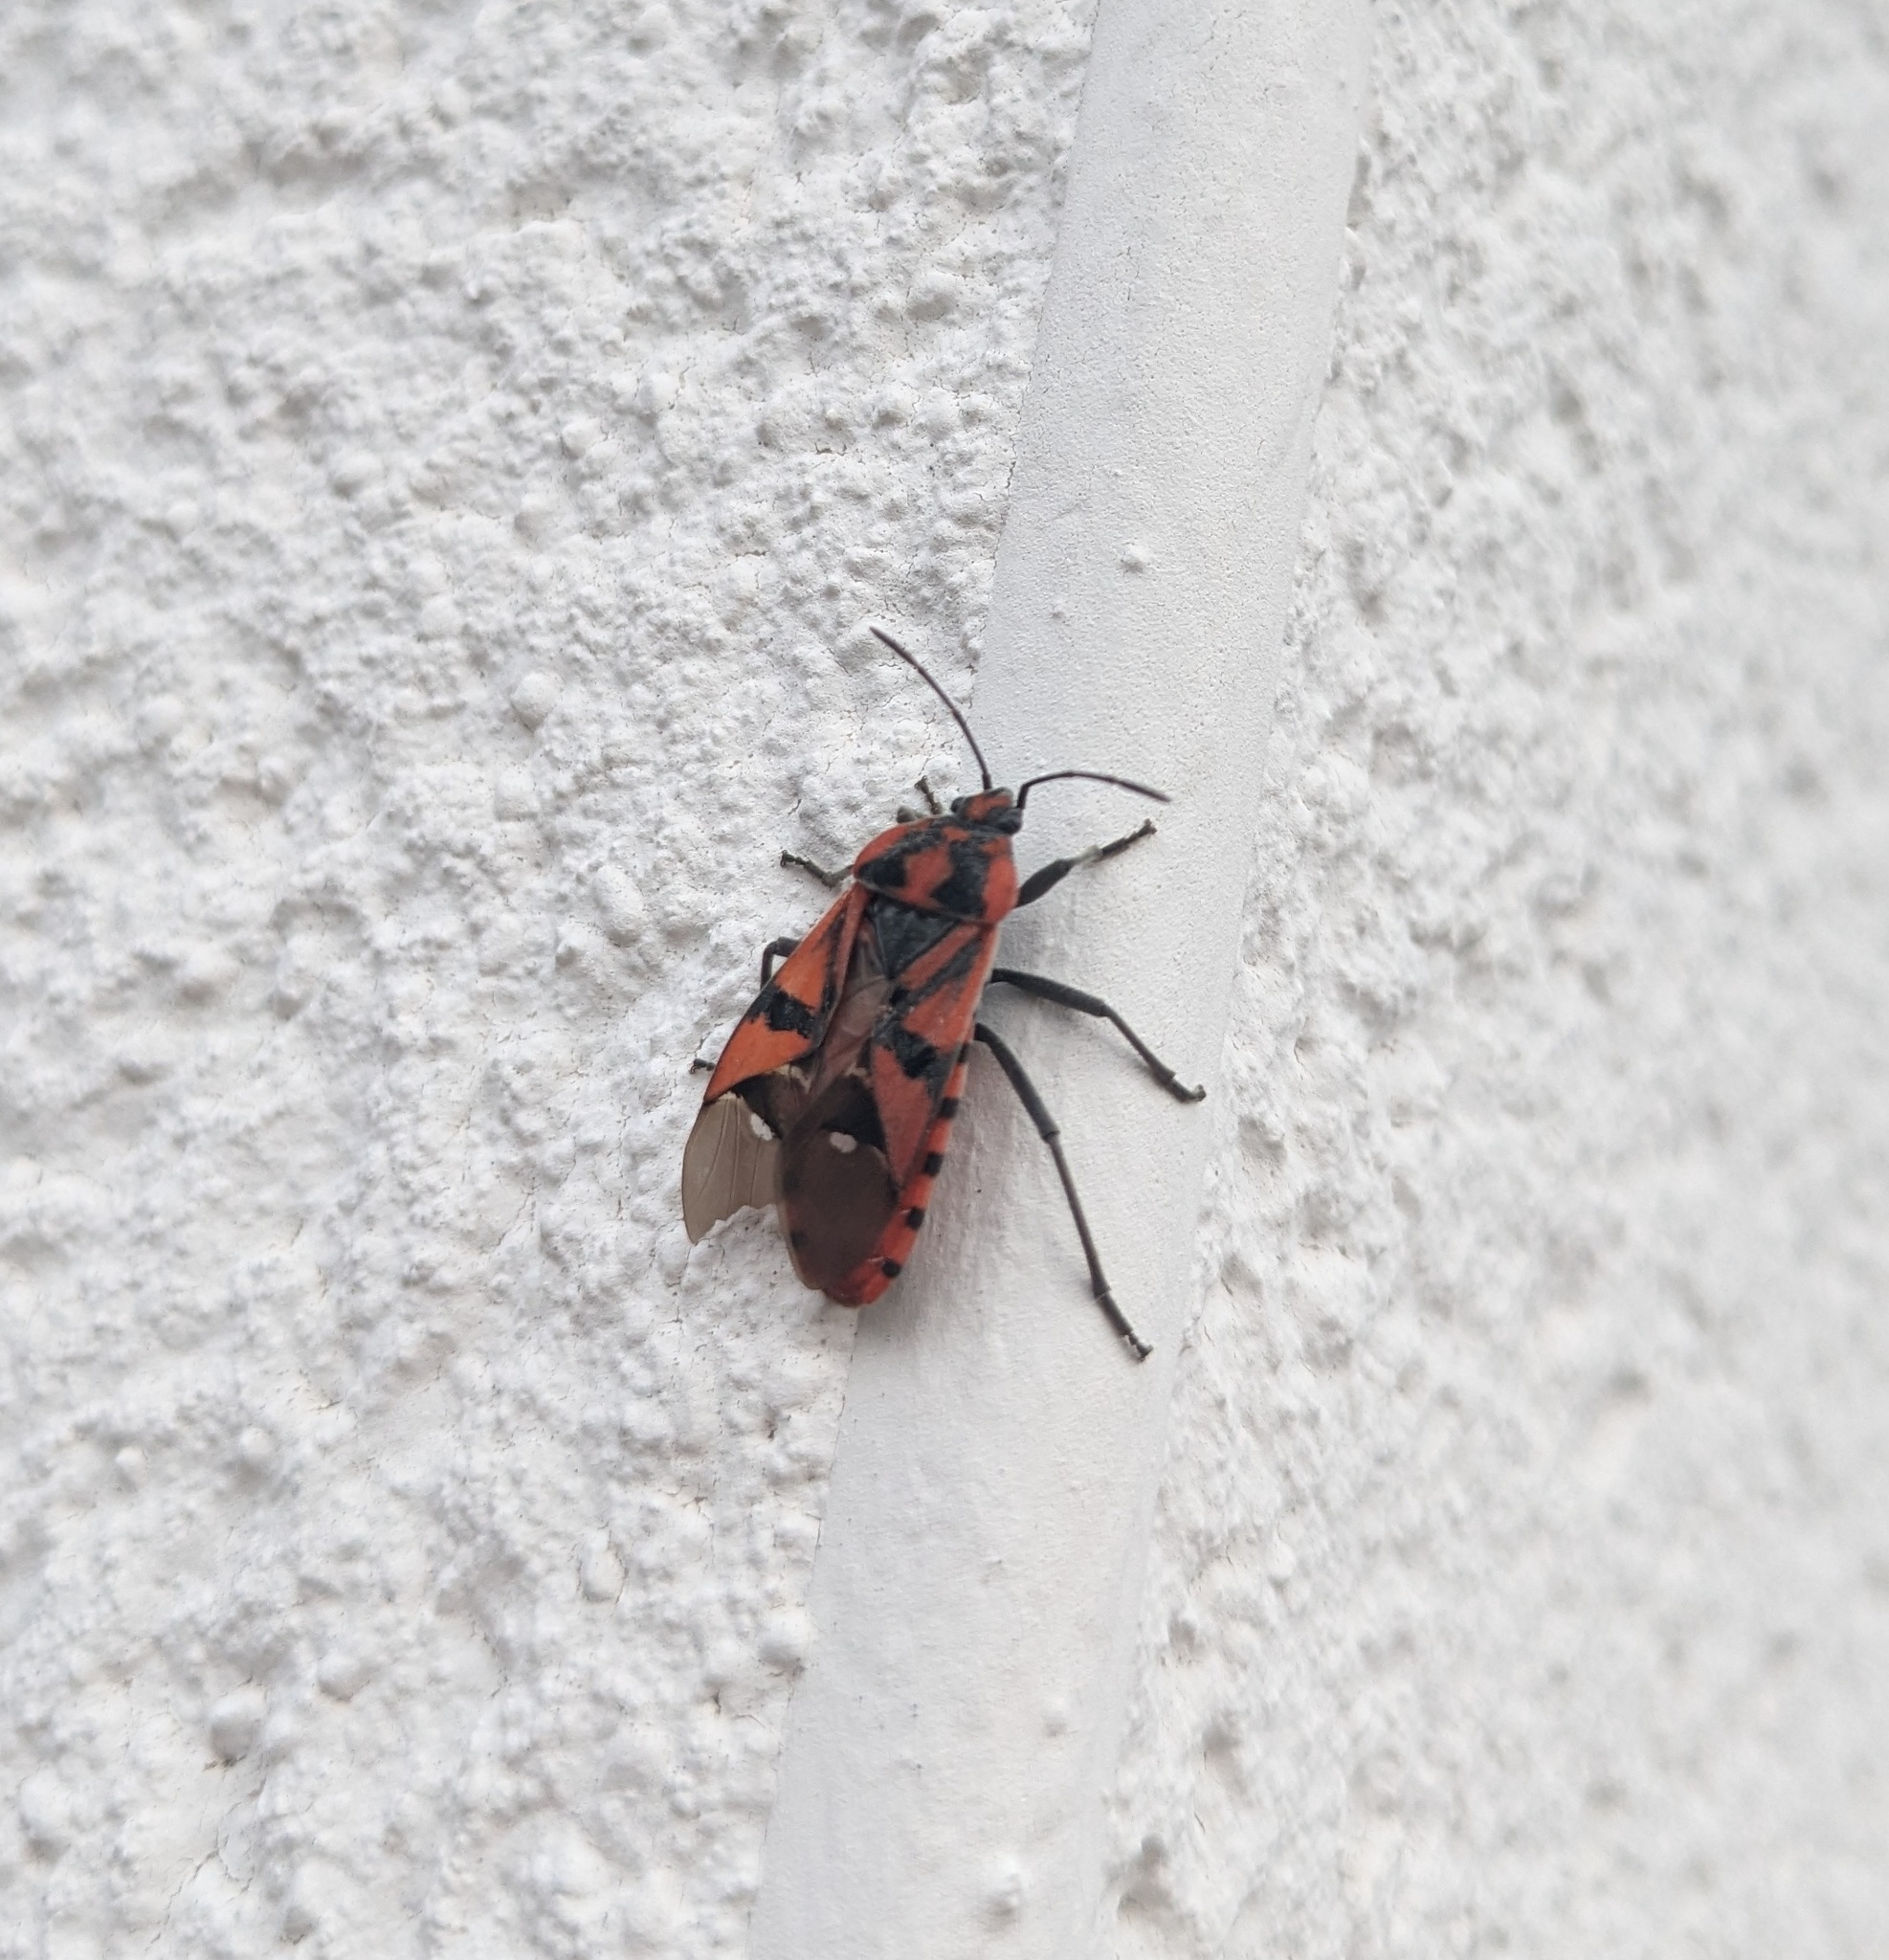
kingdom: Animalia
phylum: Arthropoda
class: Insecta
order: Hemiptera
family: Lygaeidae
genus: Spilostethus
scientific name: Spilostethus pandurus
